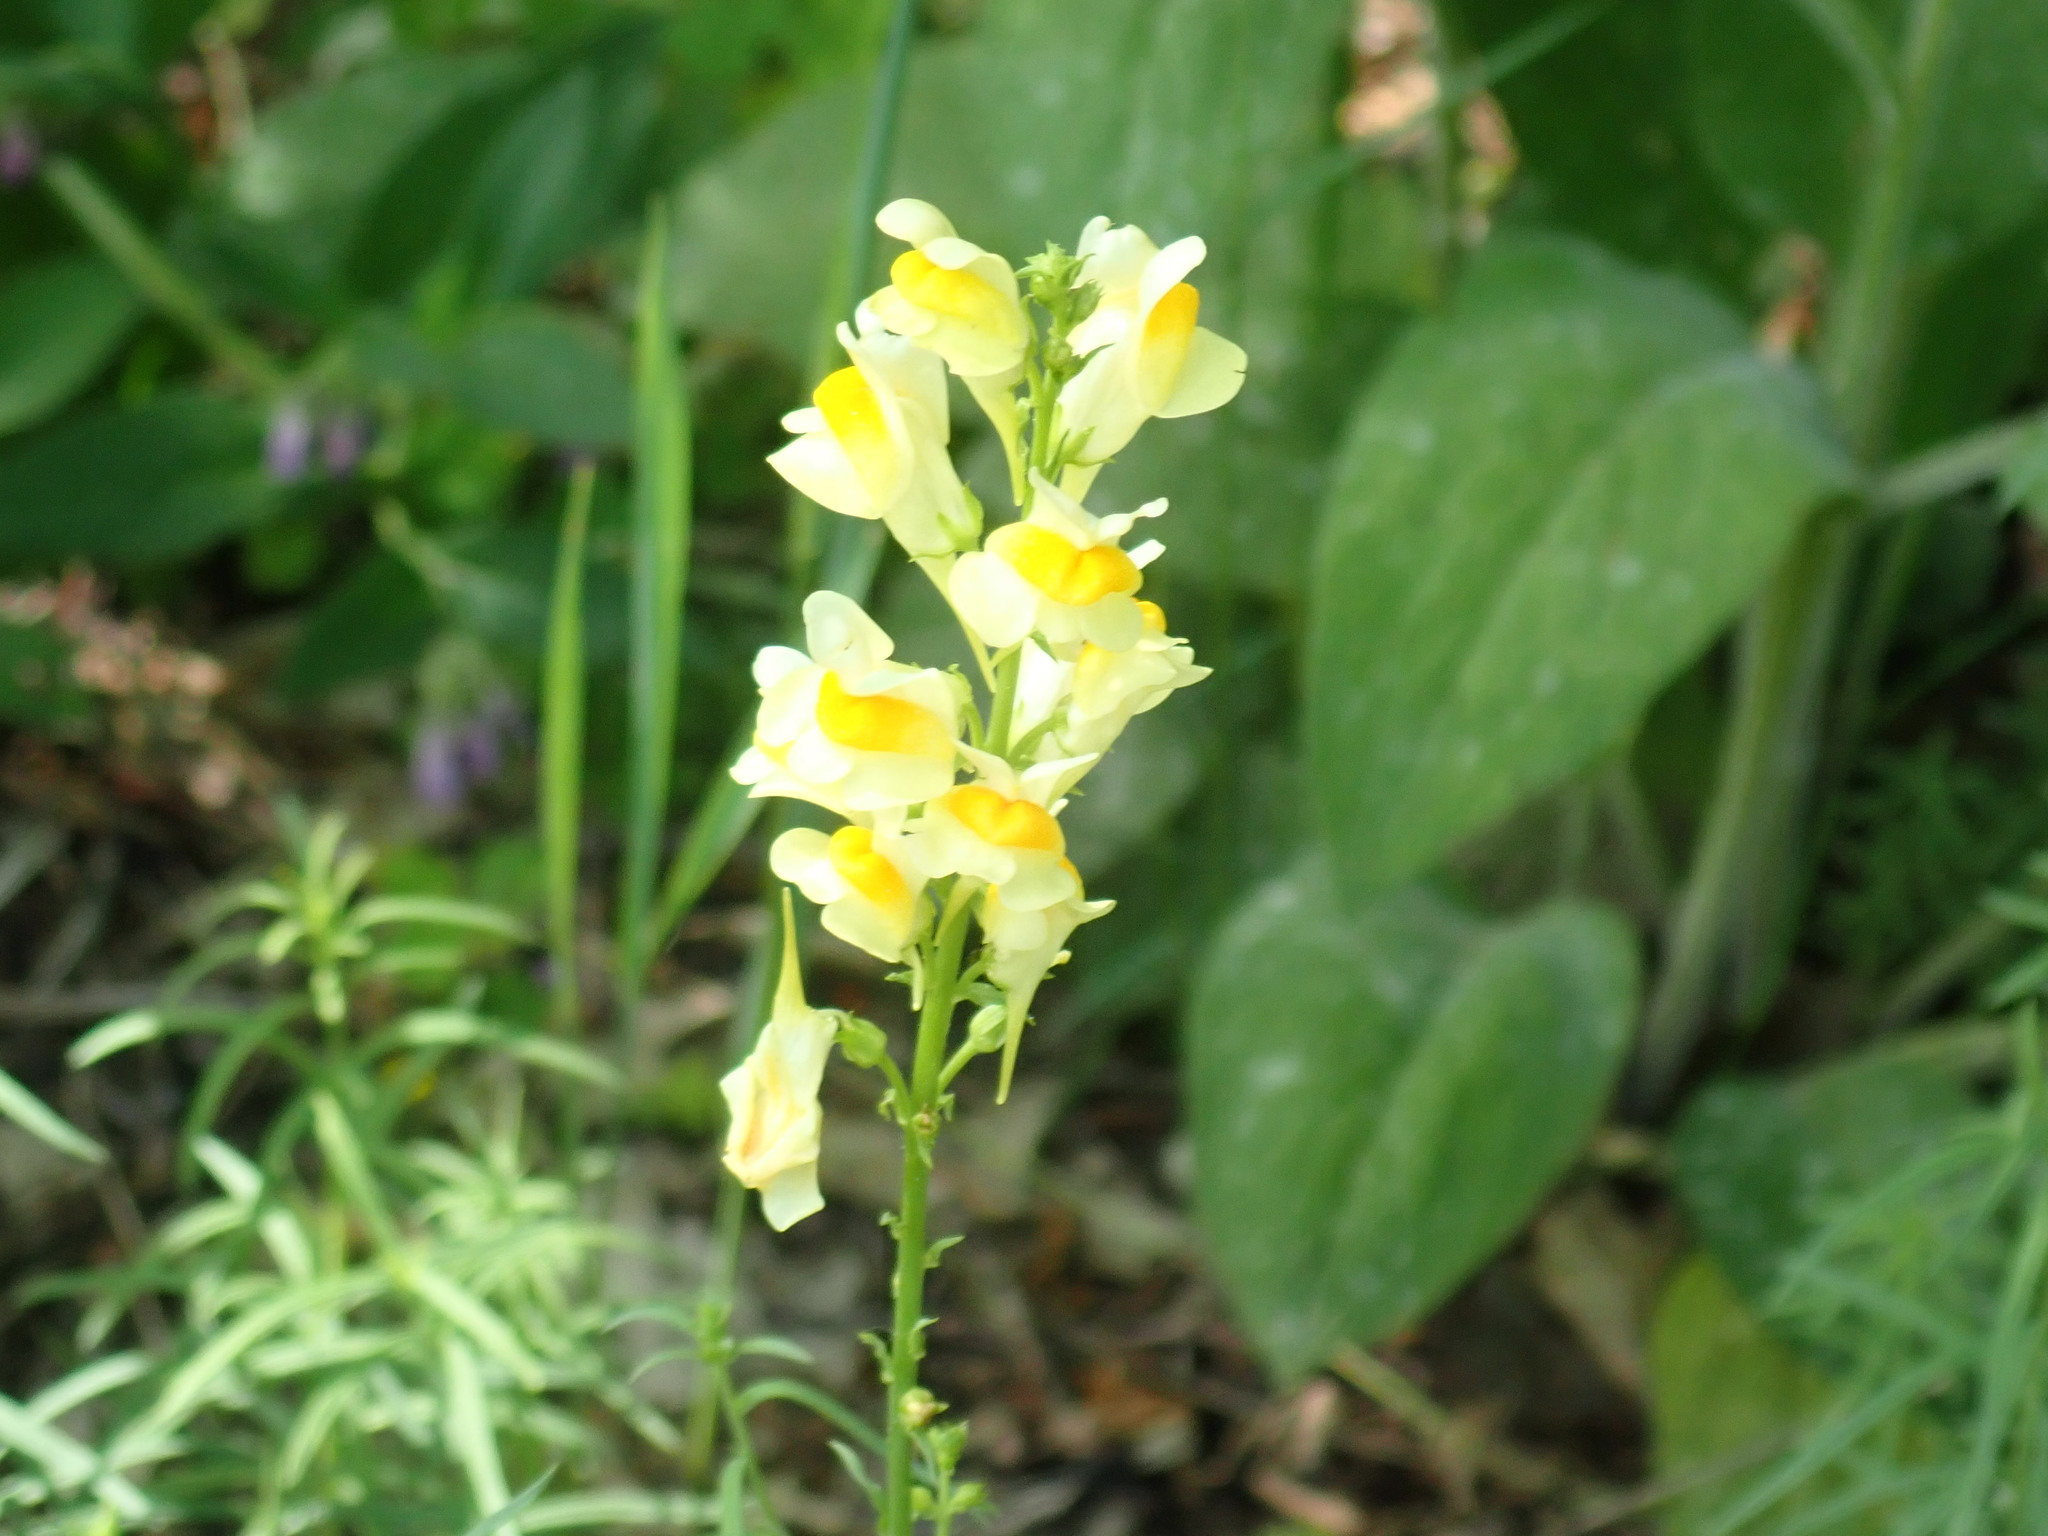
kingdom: Plantae
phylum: Tracheophyta
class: Magnoliopsida
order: Lamiales
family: Plantaginaceae
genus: Linaria
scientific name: Linaria vulgaris
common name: Butter and eggs
